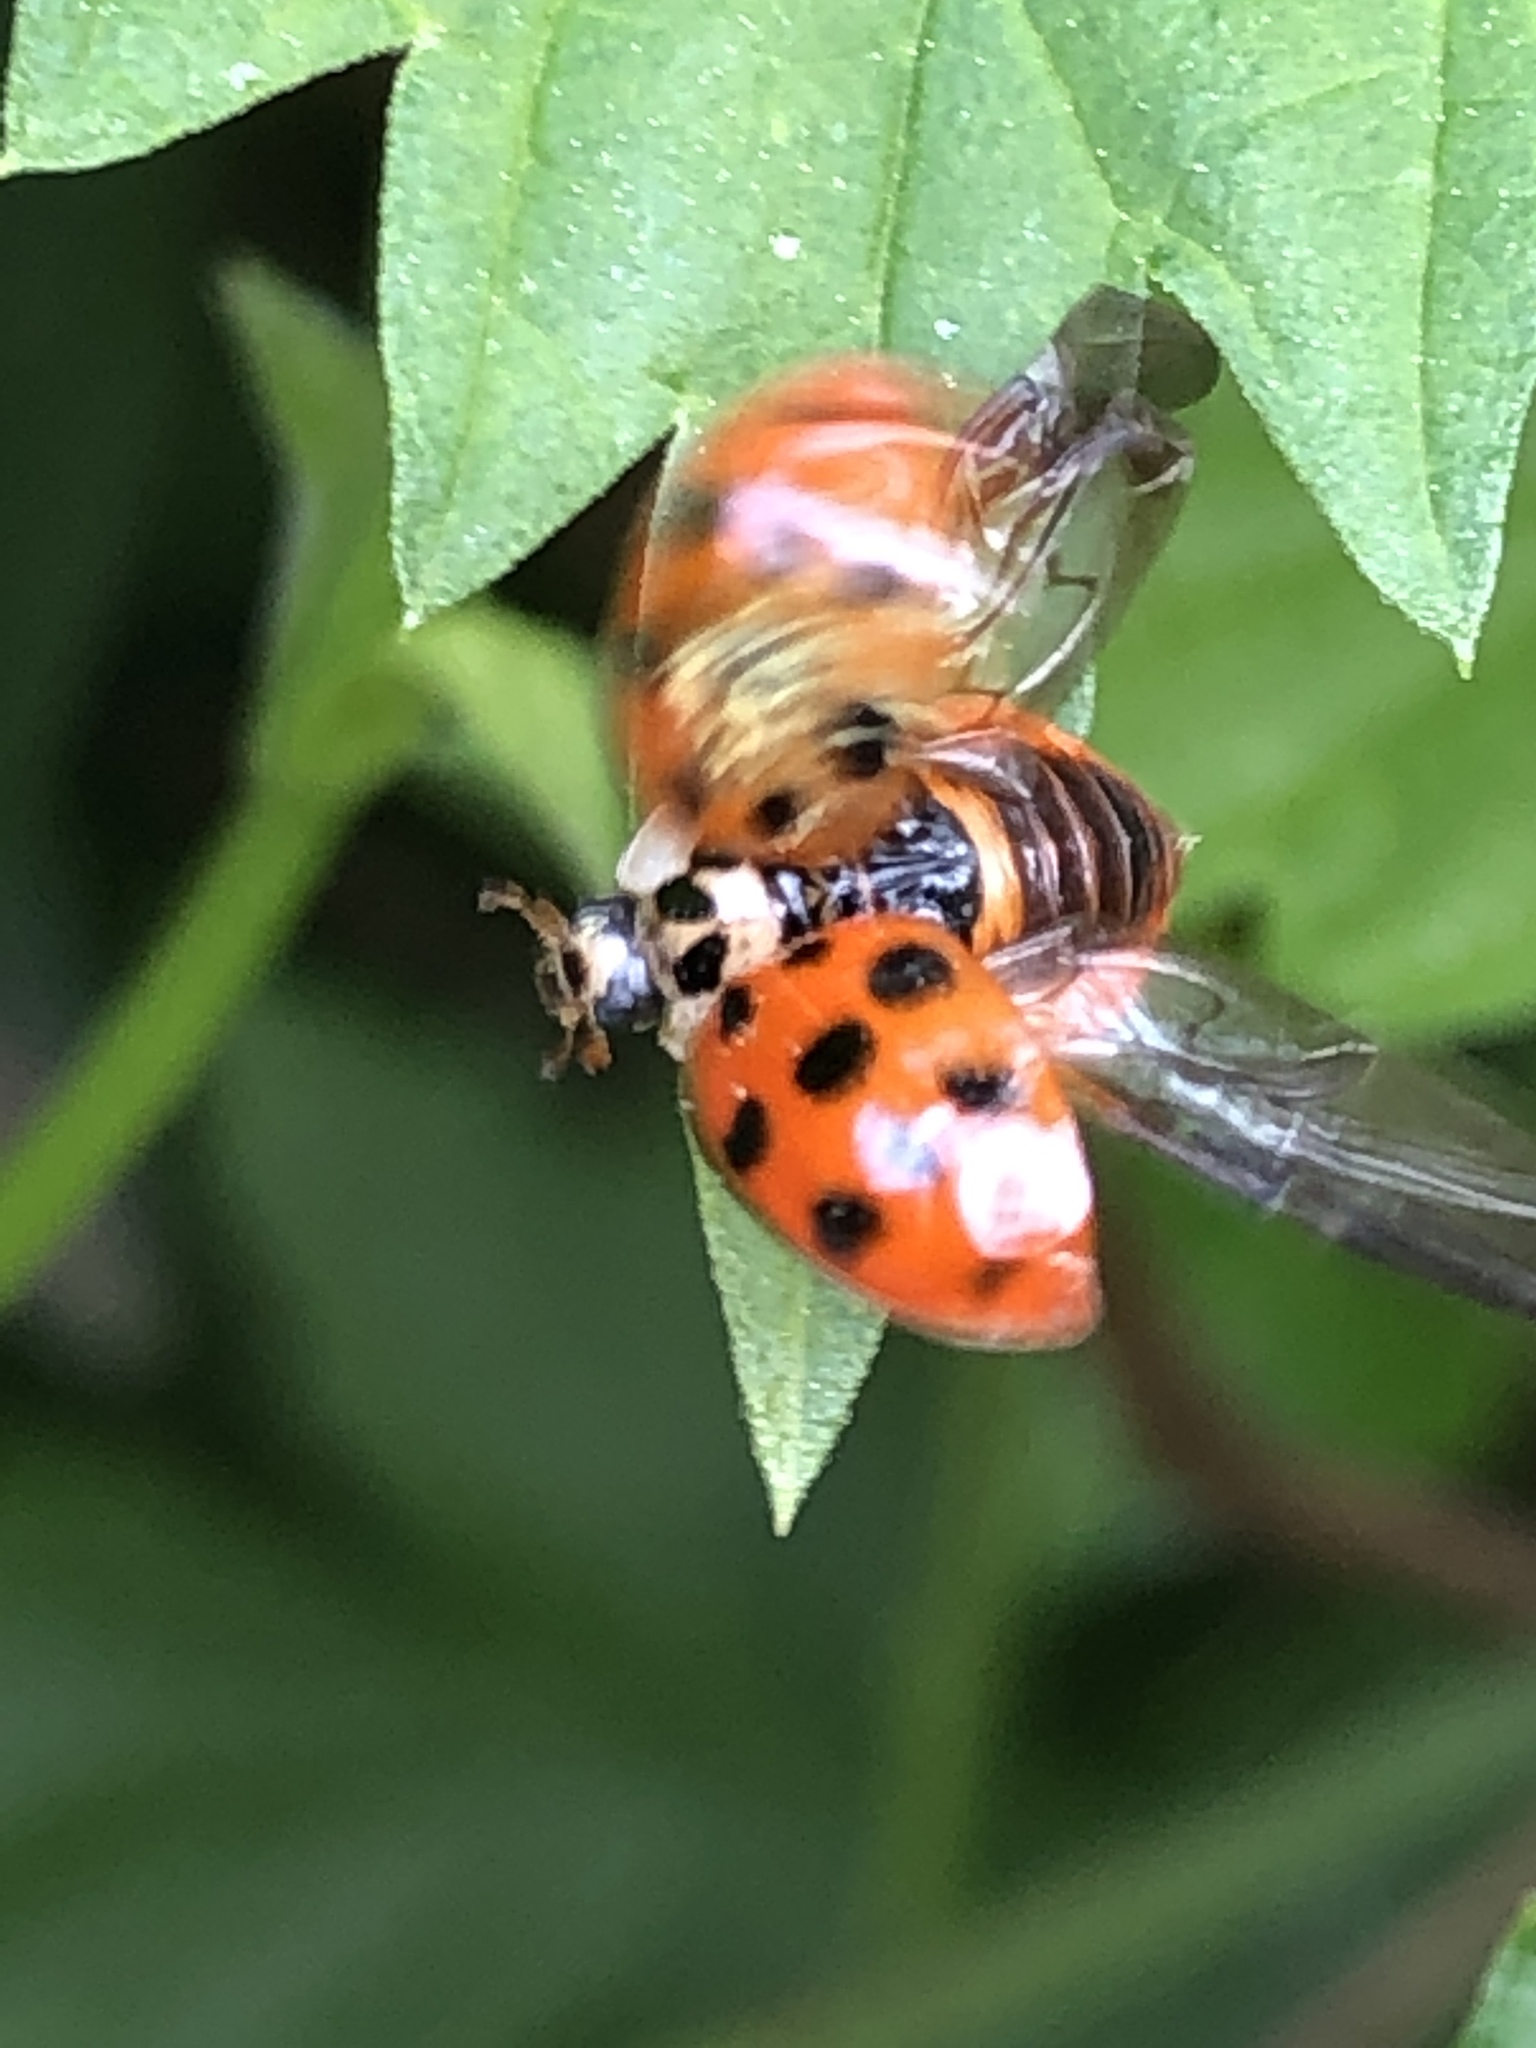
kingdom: Animalia
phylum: Arthropoda
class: Insecta
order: Coleoptera
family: Coccinellidae
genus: Harmonia
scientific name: Harmonia axyridis
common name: Harlequin ladybird
